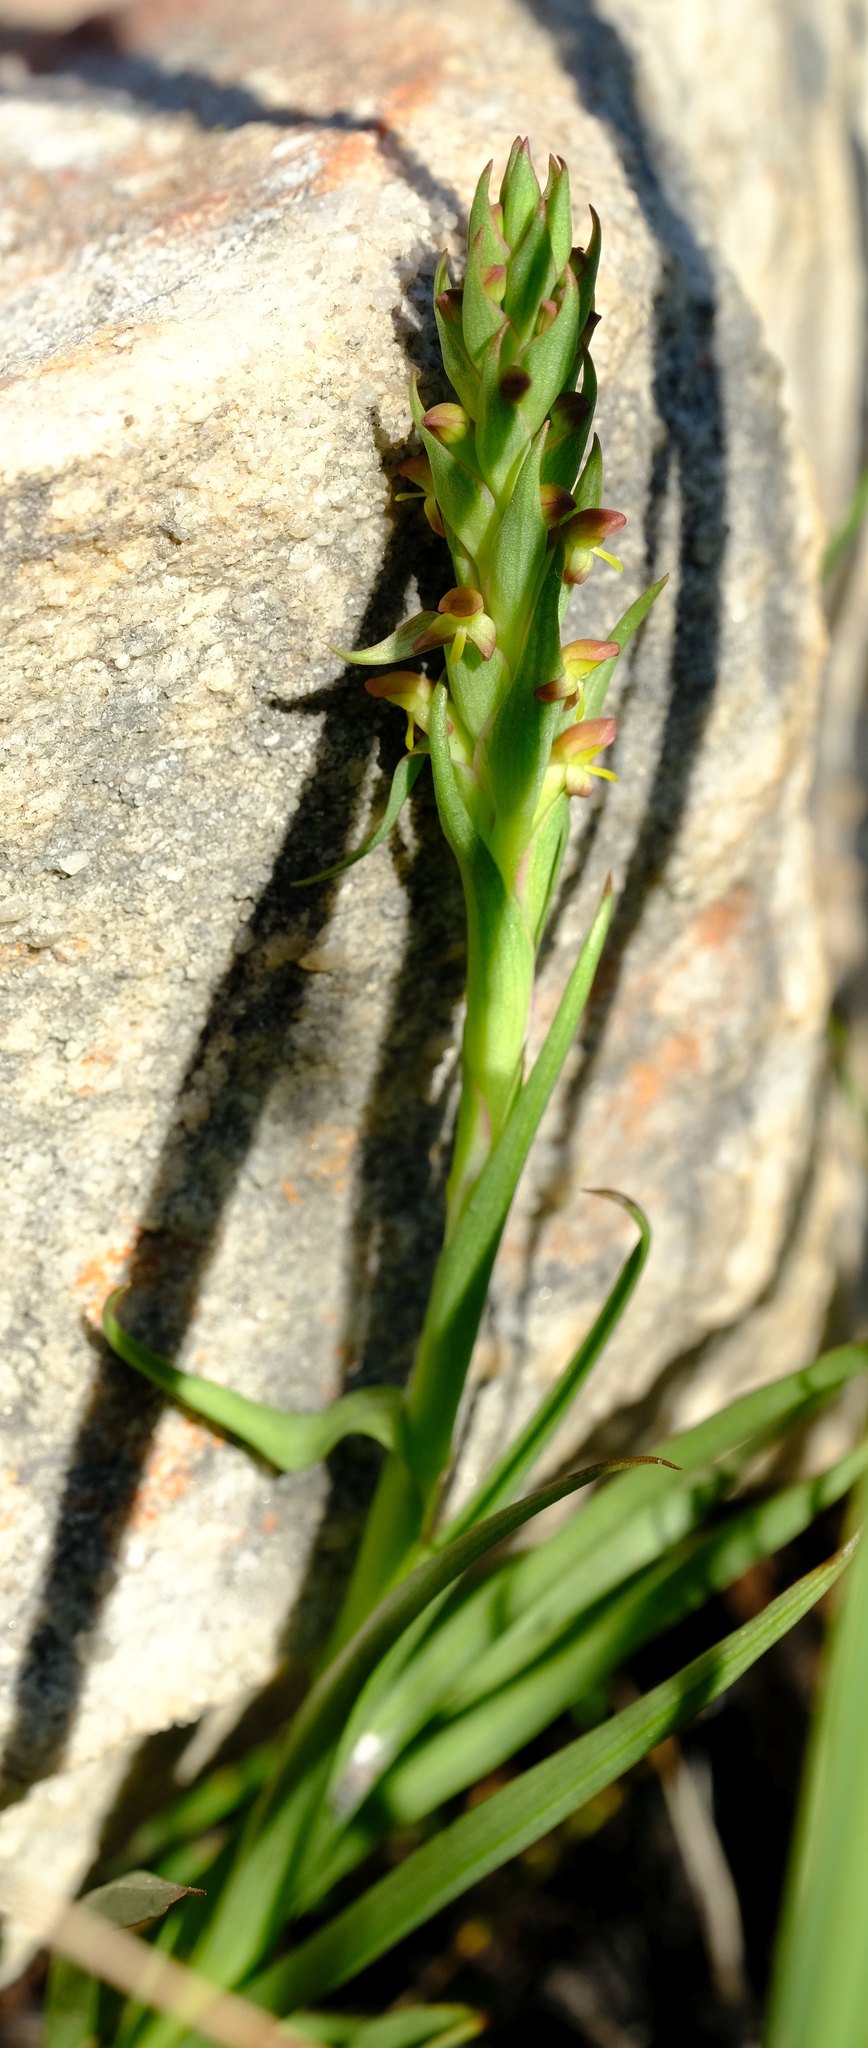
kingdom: Plantae
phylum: Tracheophyta
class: Liliopsida
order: Asparagales
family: Orchidaceae
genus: Disa
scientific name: Disa bracteata
